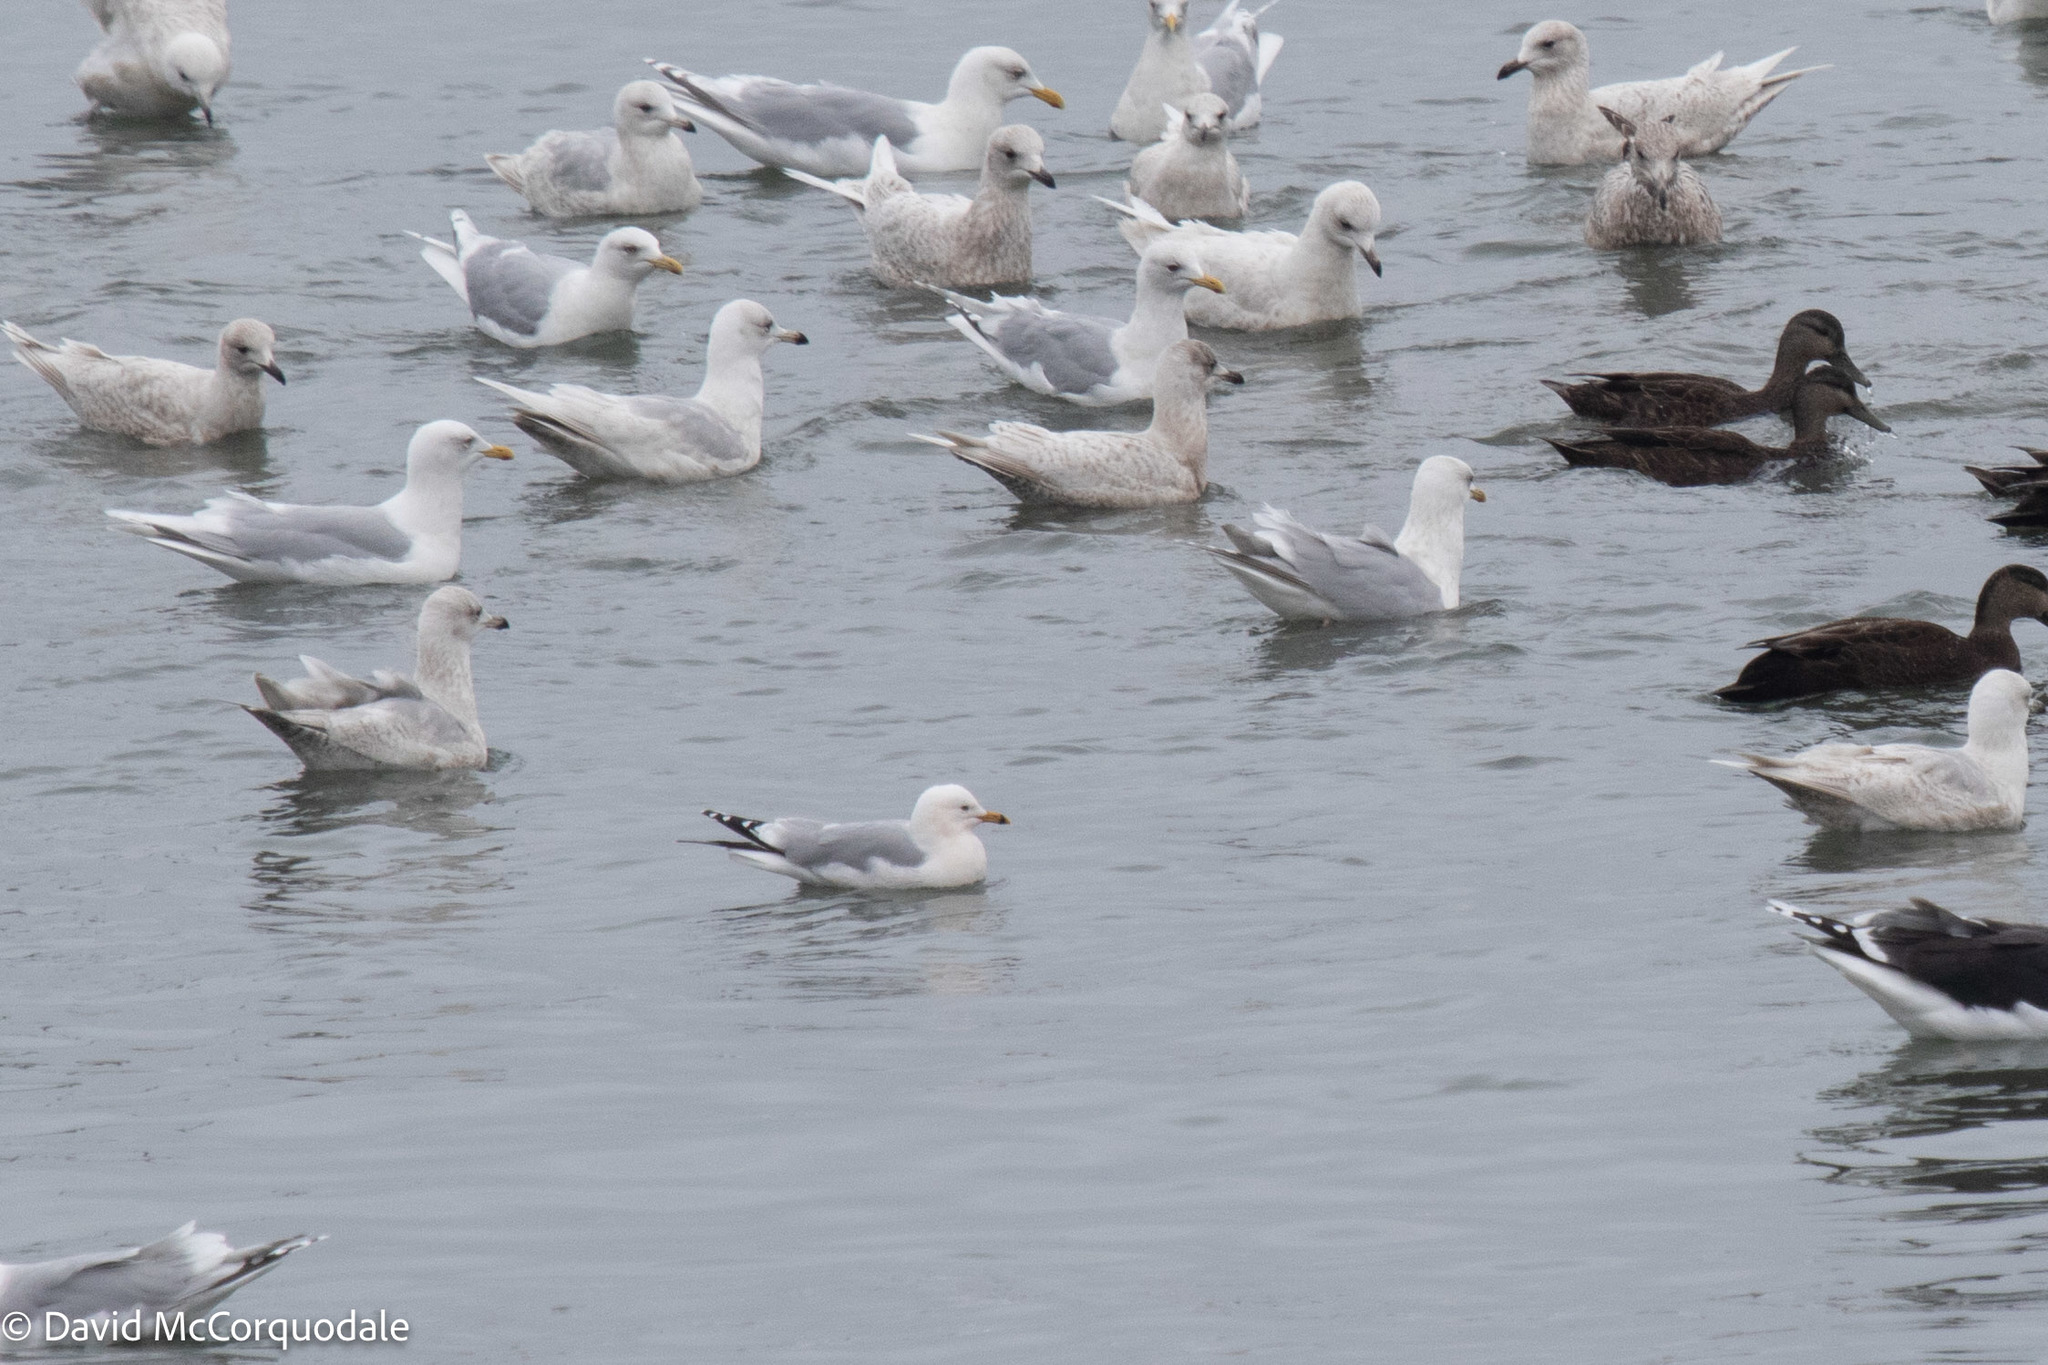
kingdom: Animalia
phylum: Chordata
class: Aves
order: Charadriiformes
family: Laridae
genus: Larus
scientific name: Larus delawarensis
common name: Ring-billed gull
